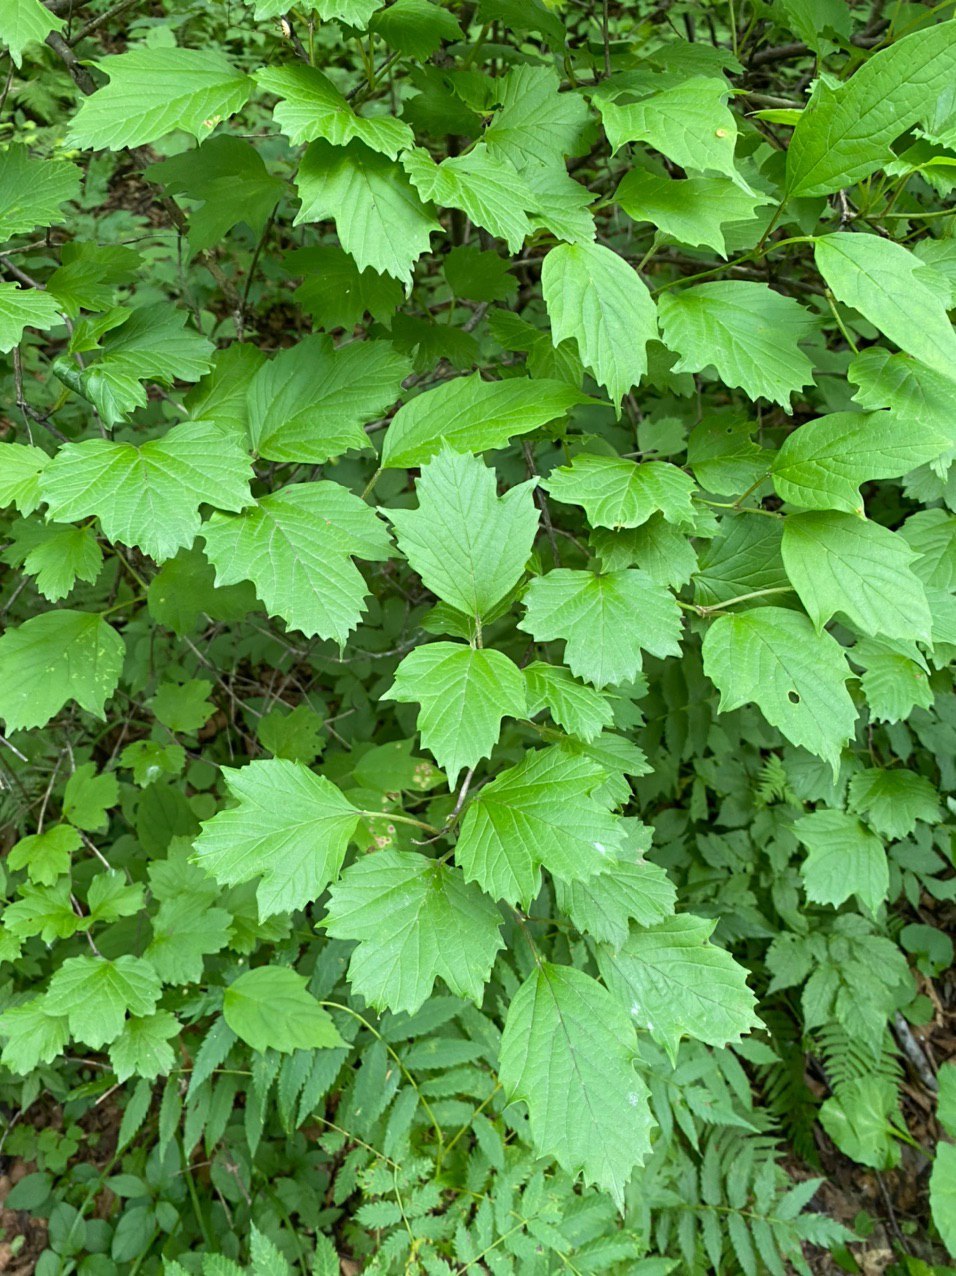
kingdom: Plantae
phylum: Tracheophyta
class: Magnoliopsida
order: Dipsacales
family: Viburnaceae
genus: Viburnum
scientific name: Viburnum sargentii
